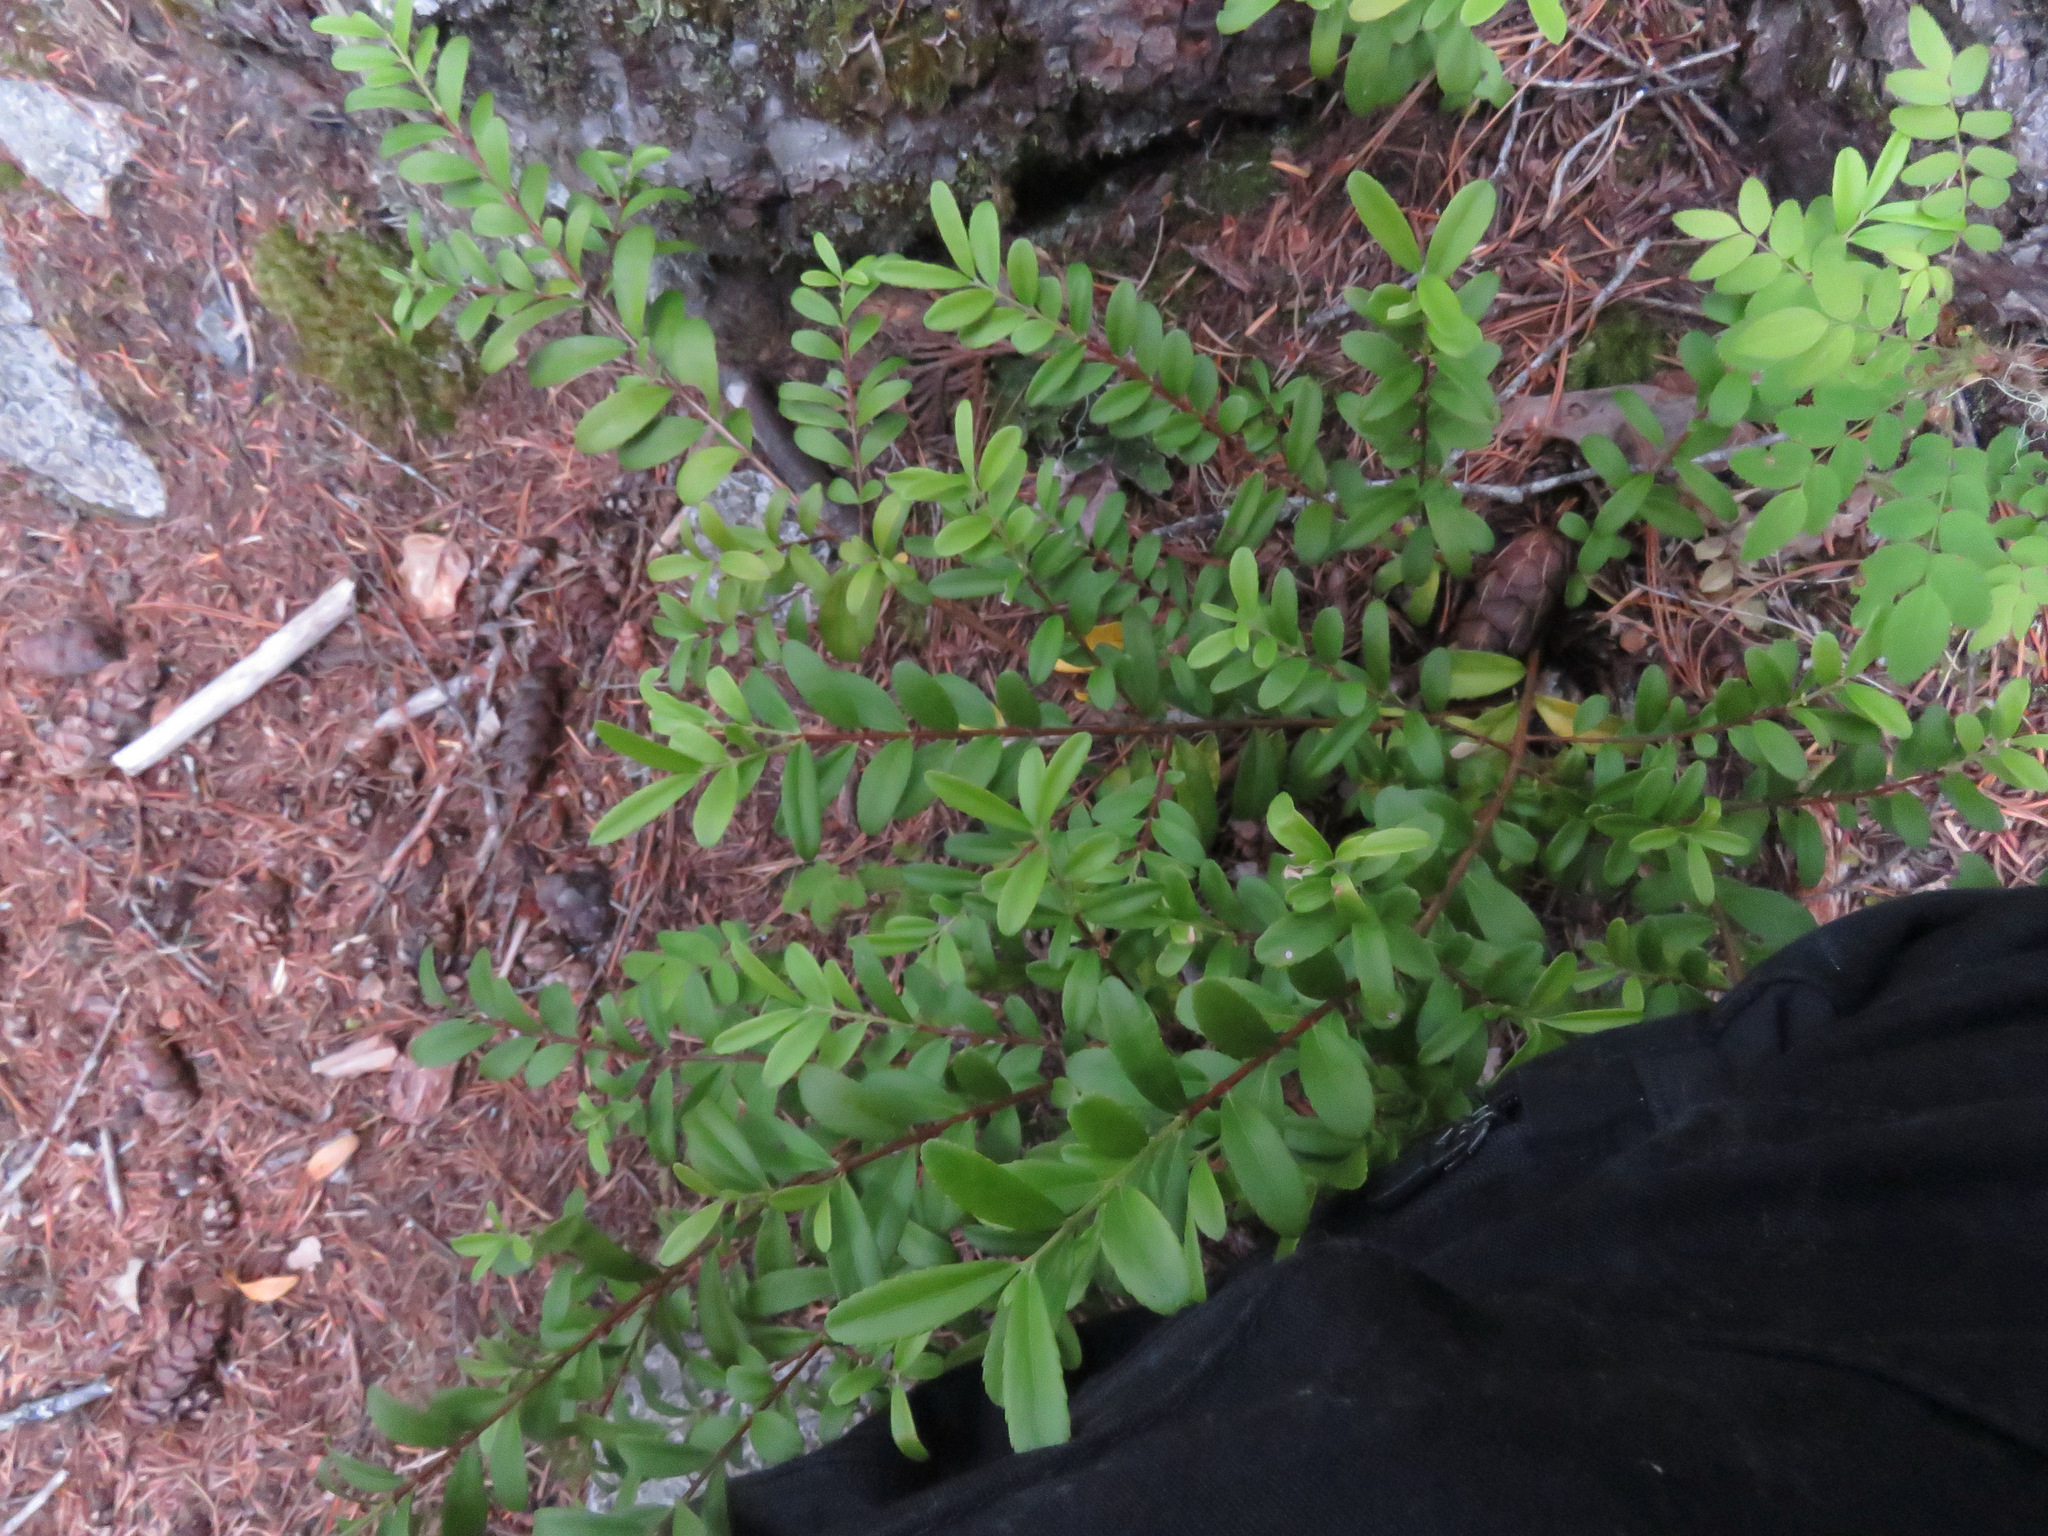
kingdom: Plantae
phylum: Tracheophyta
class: Magnoliopsida
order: Celastrales
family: Celastraceae
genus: Paxistima
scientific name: Paxistima myrsinites
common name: Mountain-lover
